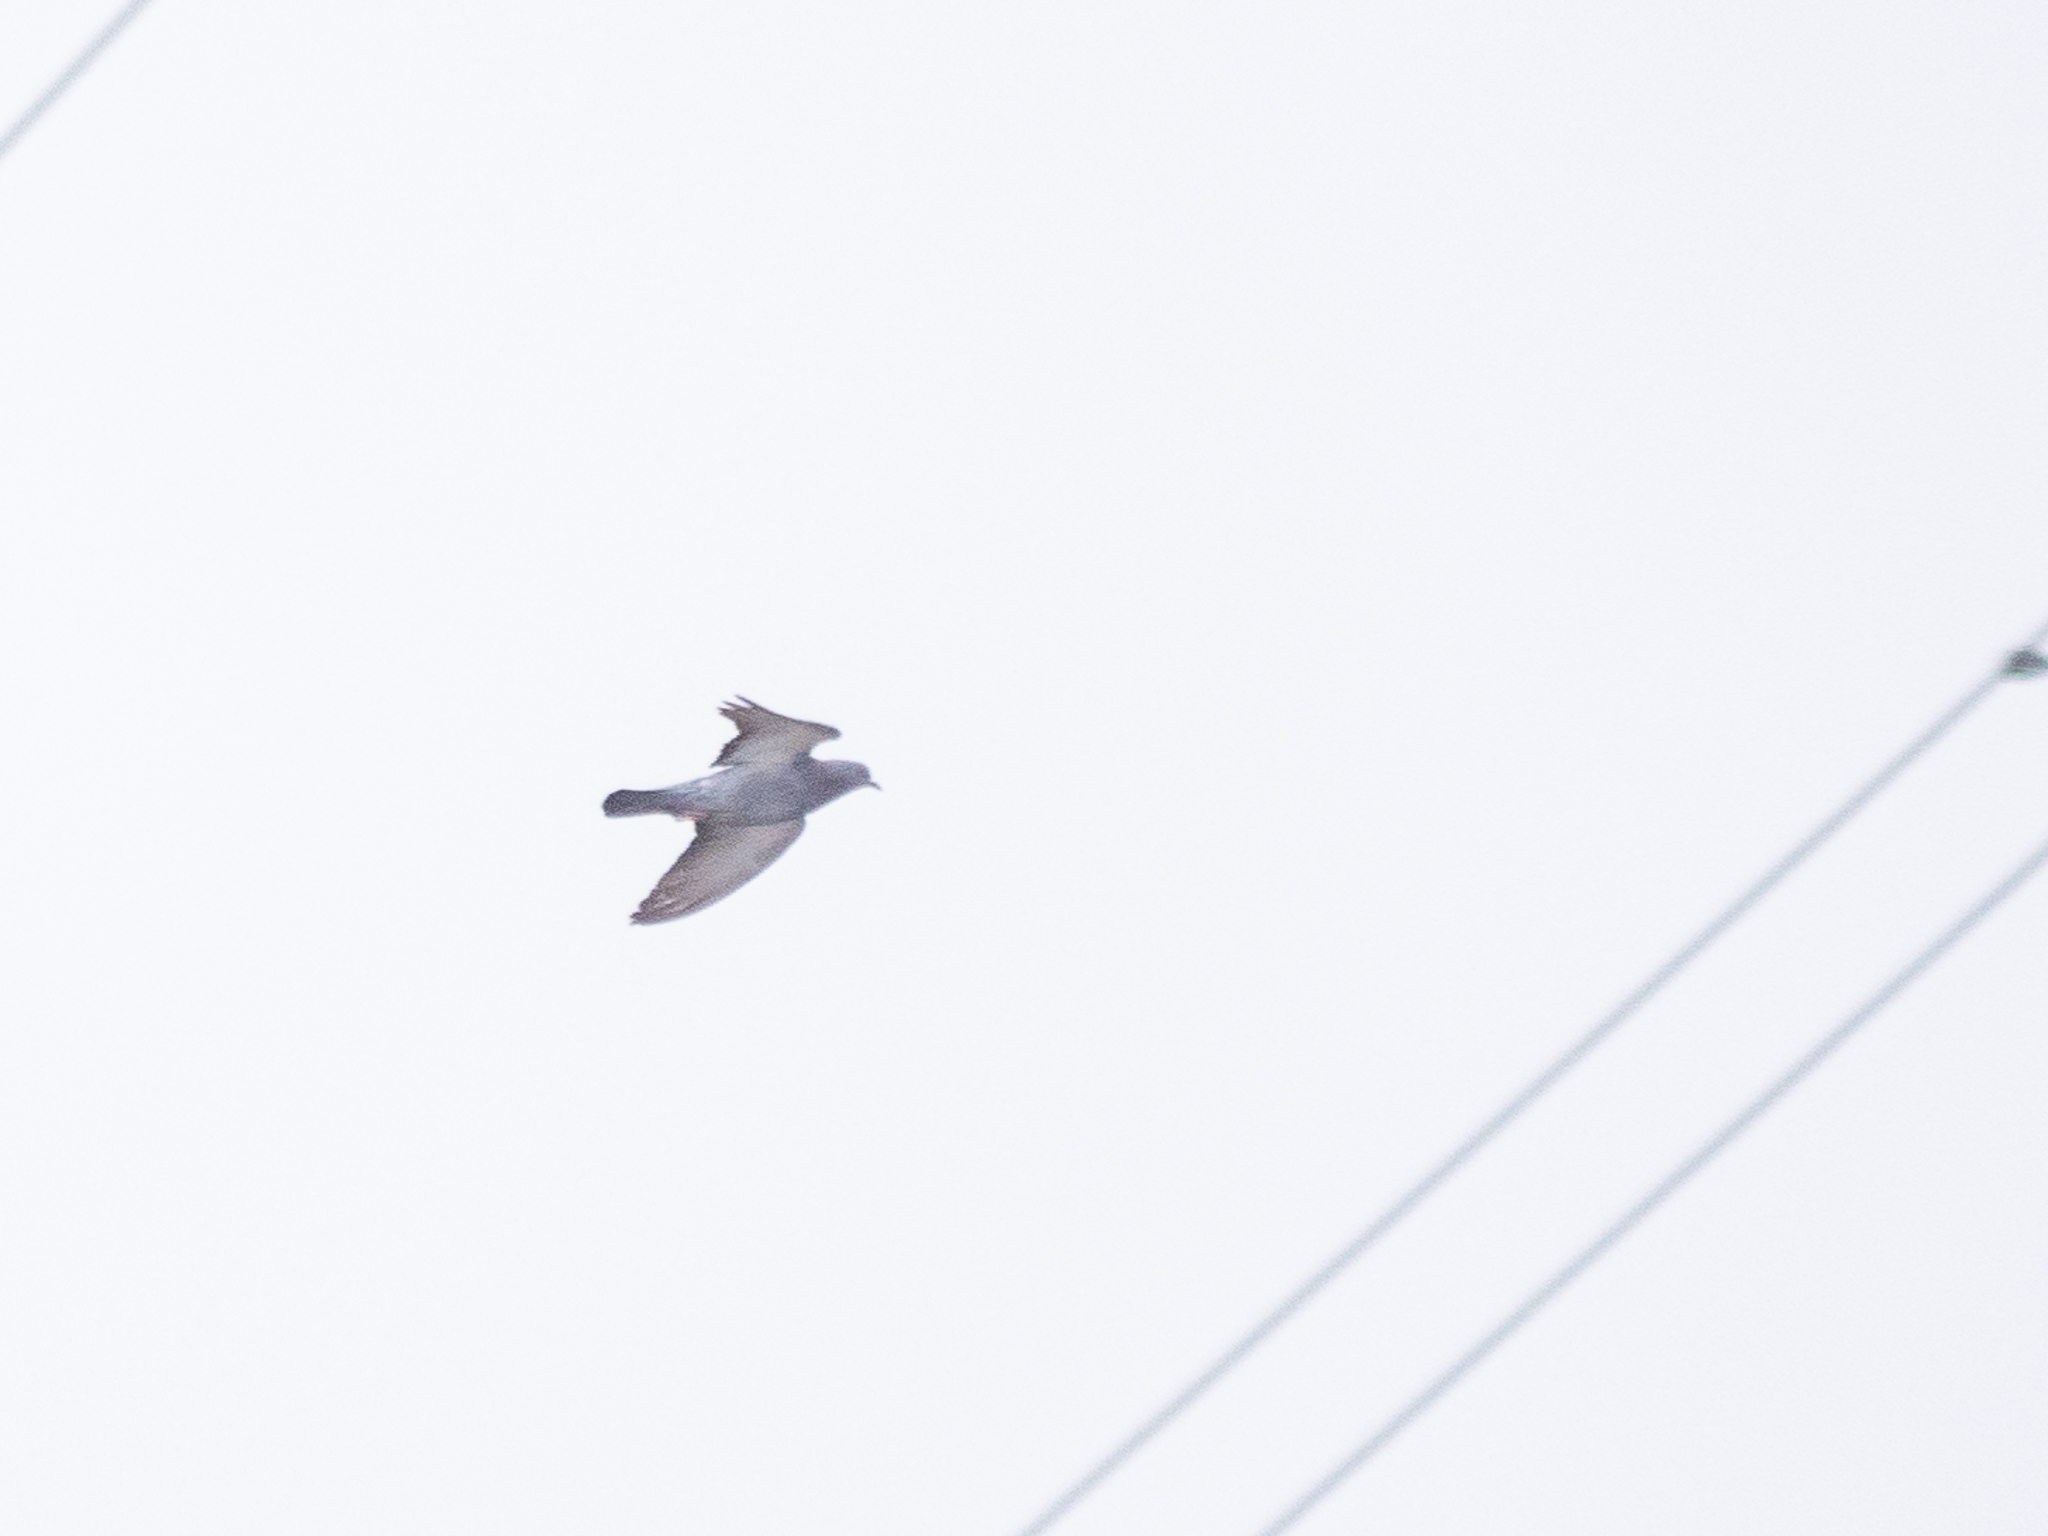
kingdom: Animalia
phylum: Chordata
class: Aves
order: Columbiformes
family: Columbidae
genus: Columba
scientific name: Columba livia
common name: Rock pigeon
